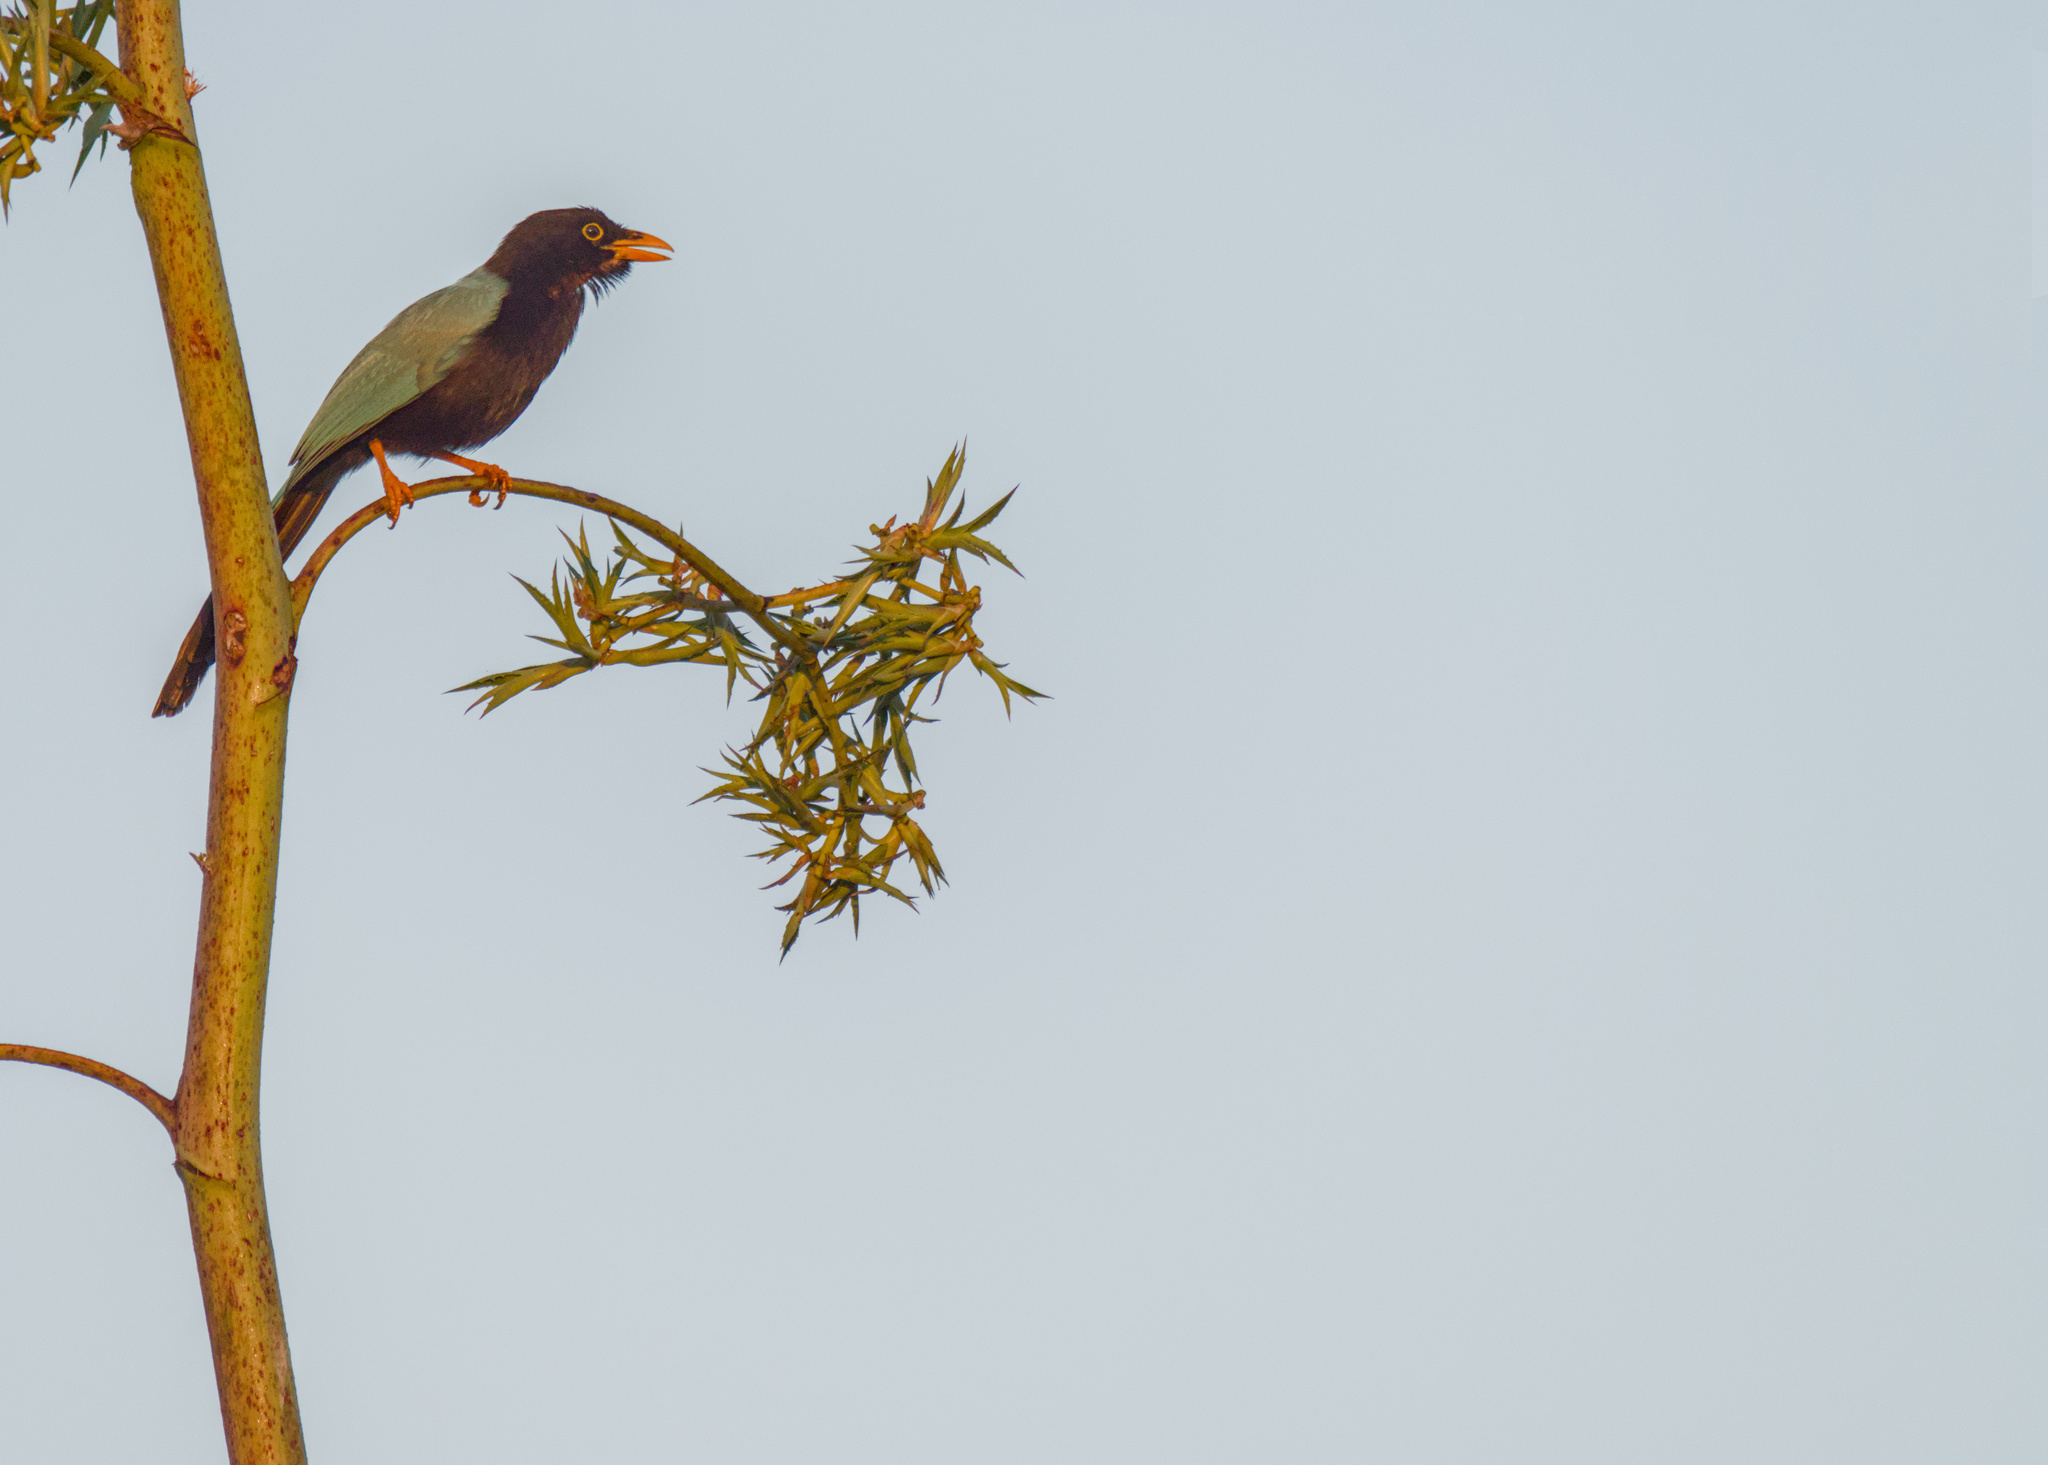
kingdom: Animalia
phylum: Chordata
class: Aves
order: Passeriformes
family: Corvidae
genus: Cyanocorax
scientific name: Cyanocorax yucatanicus
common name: Yucatan jay
